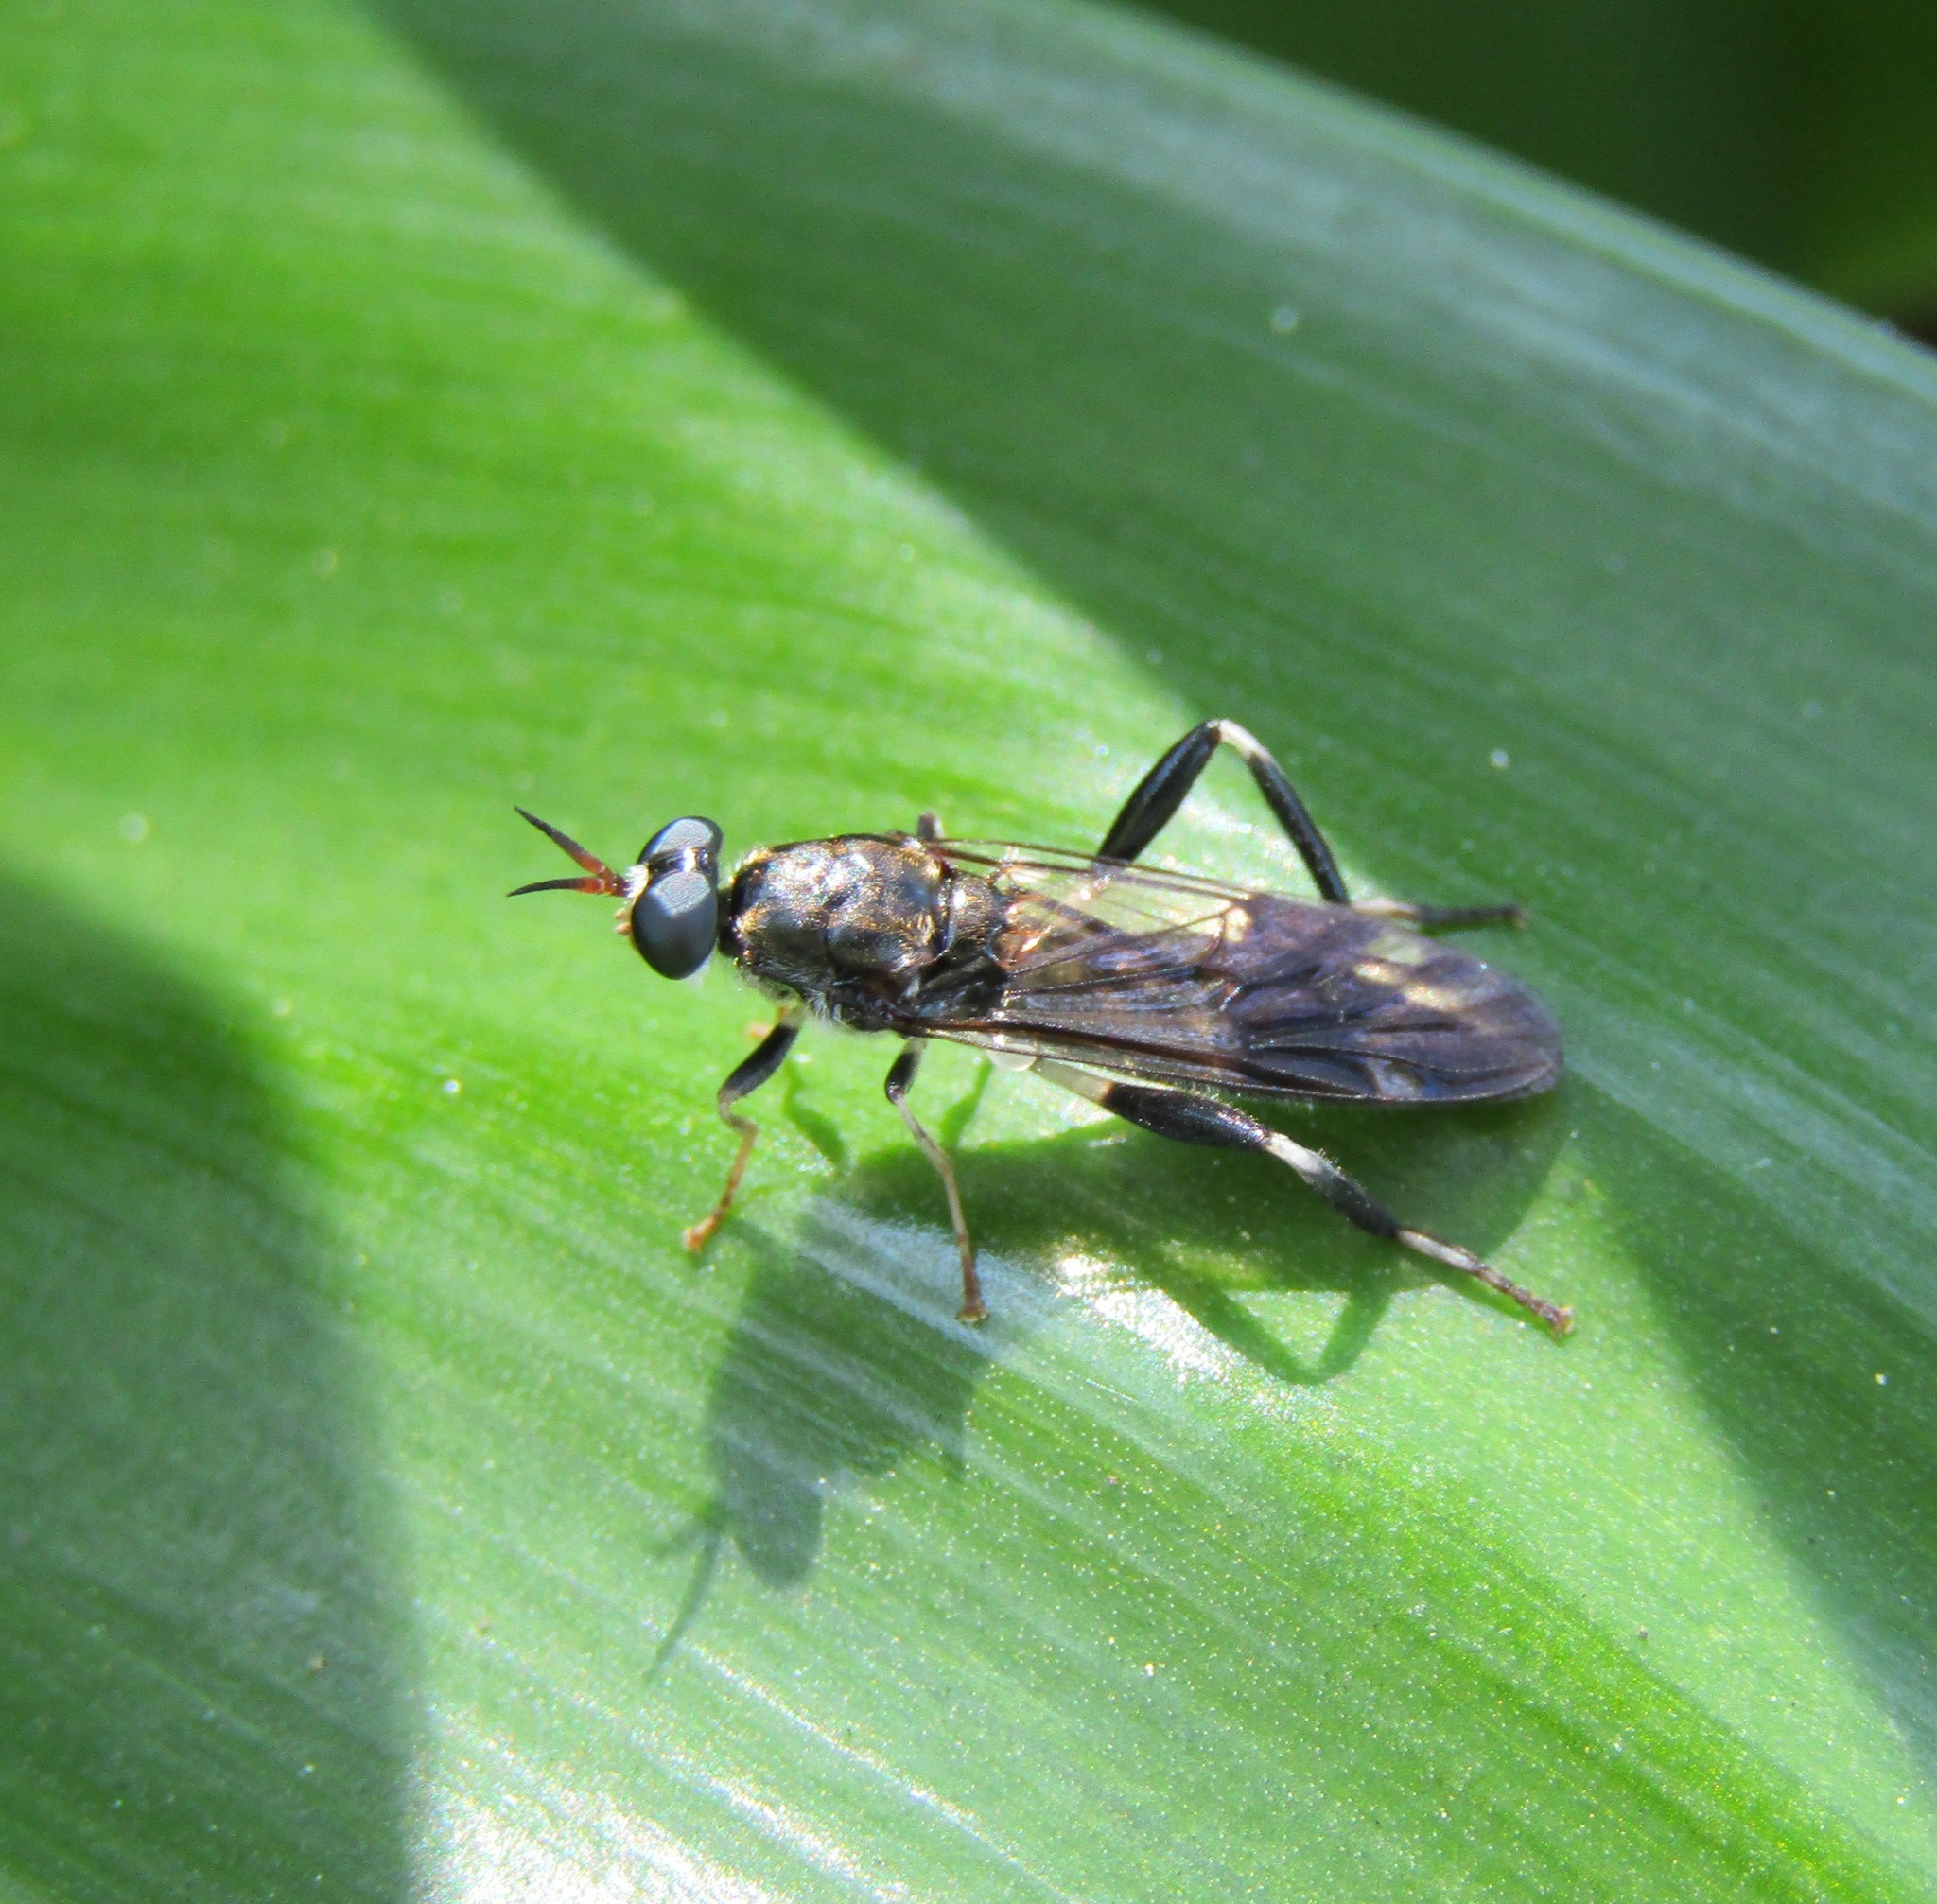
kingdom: Animalia
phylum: Arthropoda
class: Insecta
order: Diptera
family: Stratiomyidae
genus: Exaireta
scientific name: Exaireta spinigera
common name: Blue soldier fly
